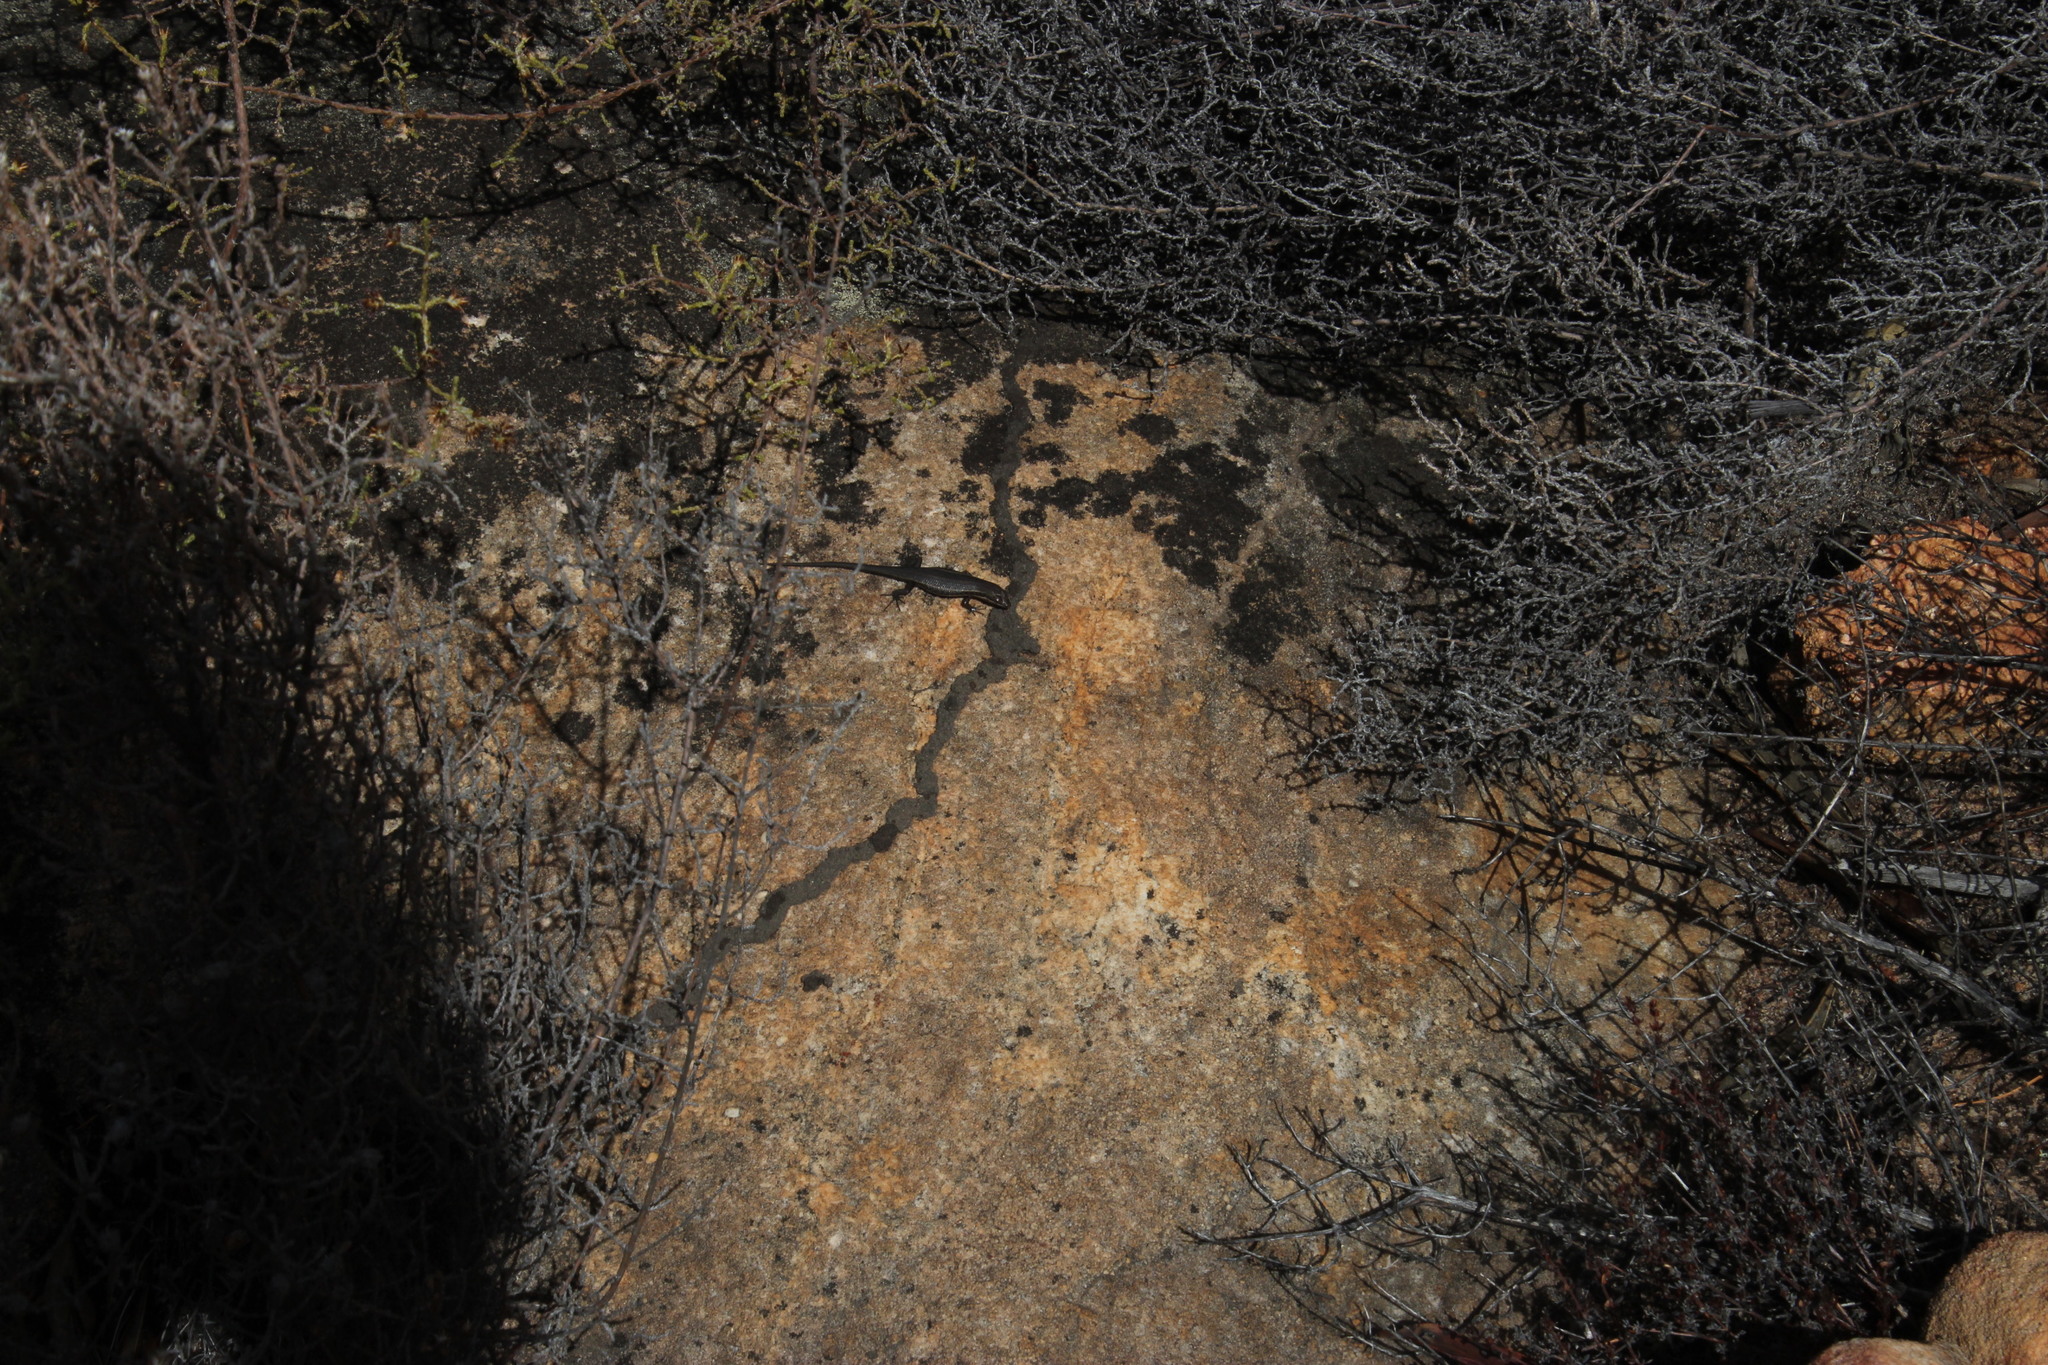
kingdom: Animalia
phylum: Chordata
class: Squamata
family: Scincidae
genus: Trachylepis
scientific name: Trachylepis variegata
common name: Variegated skink
